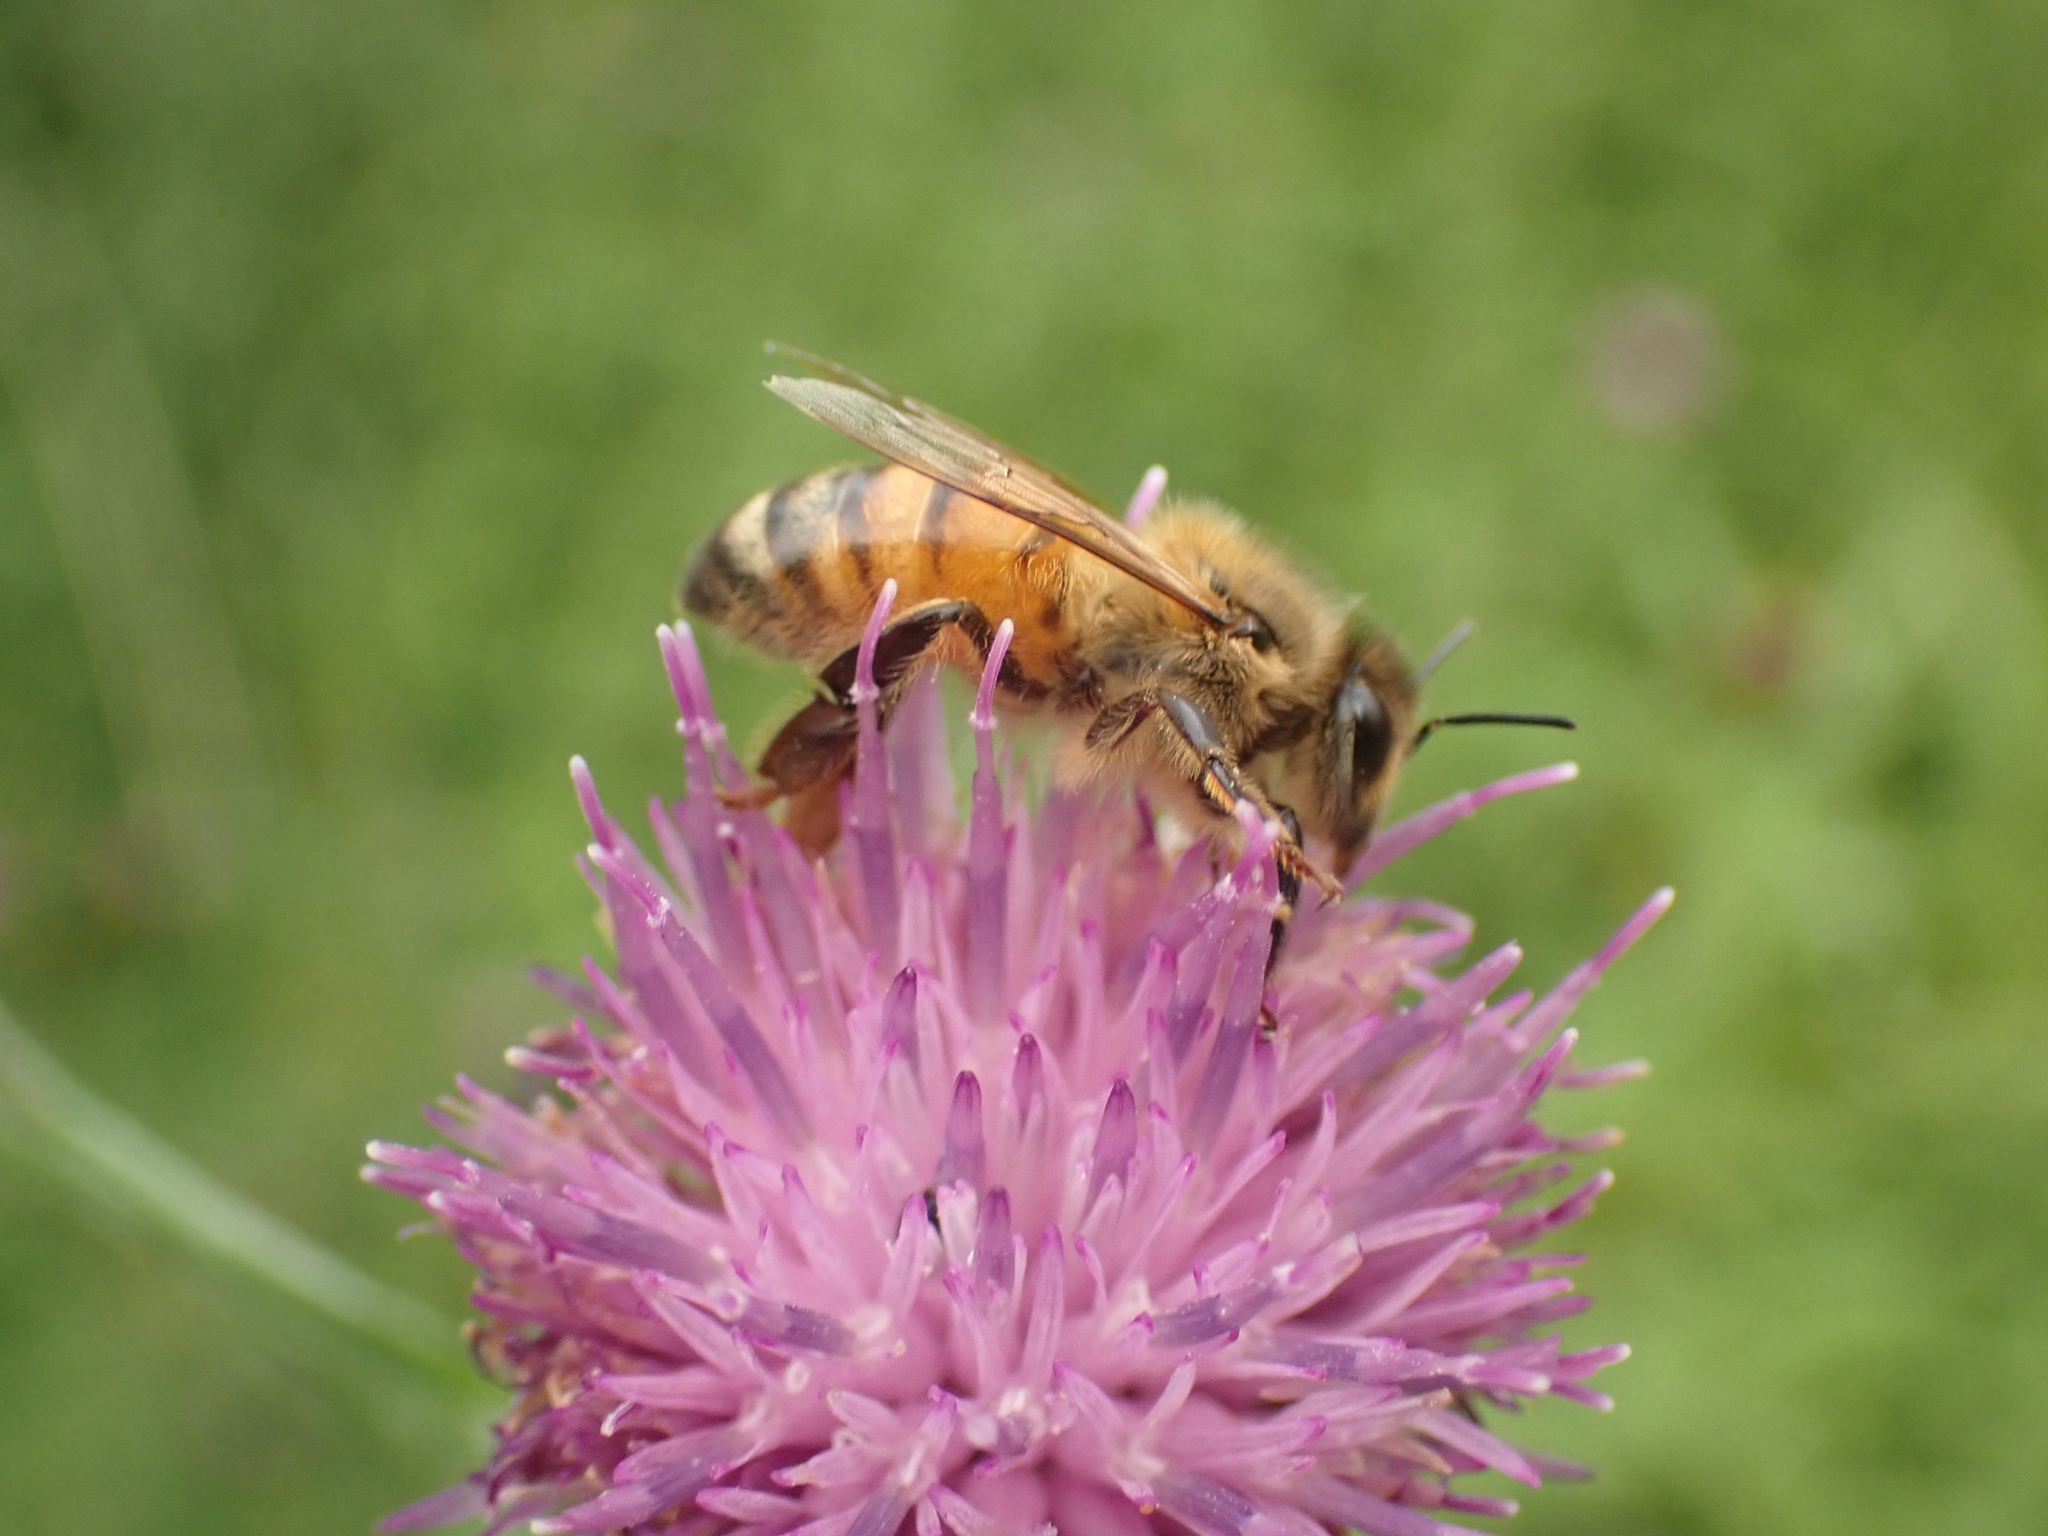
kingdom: Animalia
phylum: Arthropoda
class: Insecta
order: Hymenoptera
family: Apidae
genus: Apis
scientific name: Apis mellifera
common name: Honey bee
